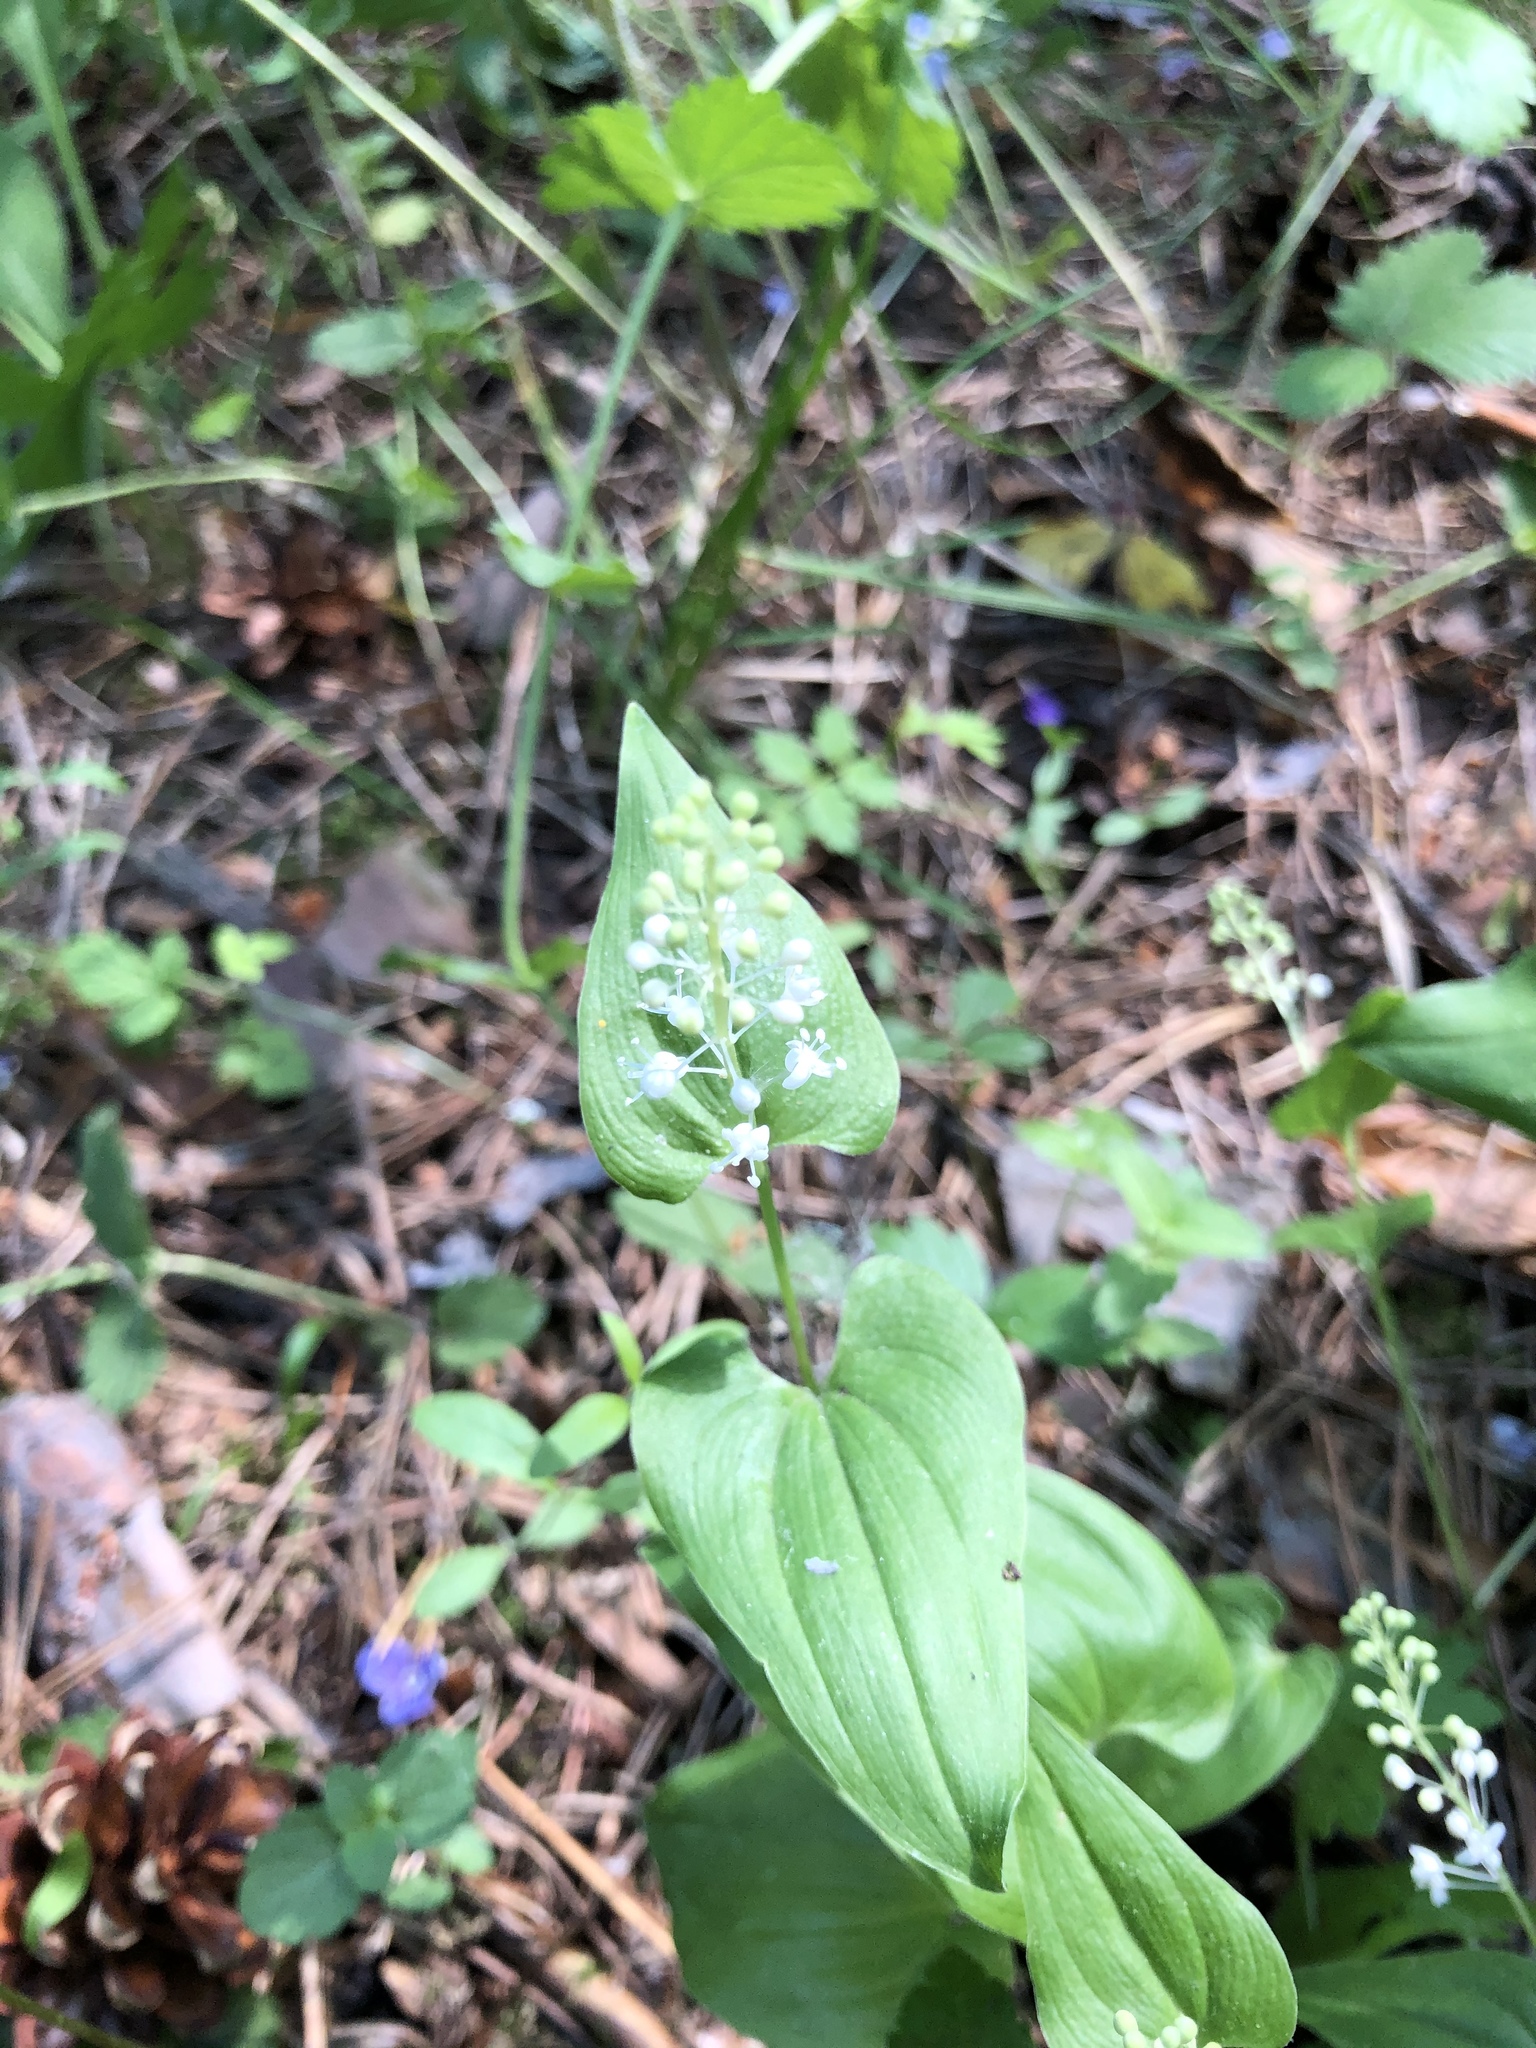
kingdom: Plantae
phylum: Tracheophyta
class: Liliopsida
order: Asparagales
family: Asparagaceae
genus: Maianthemum
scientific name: Maianthemum bifolium
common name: May lily
